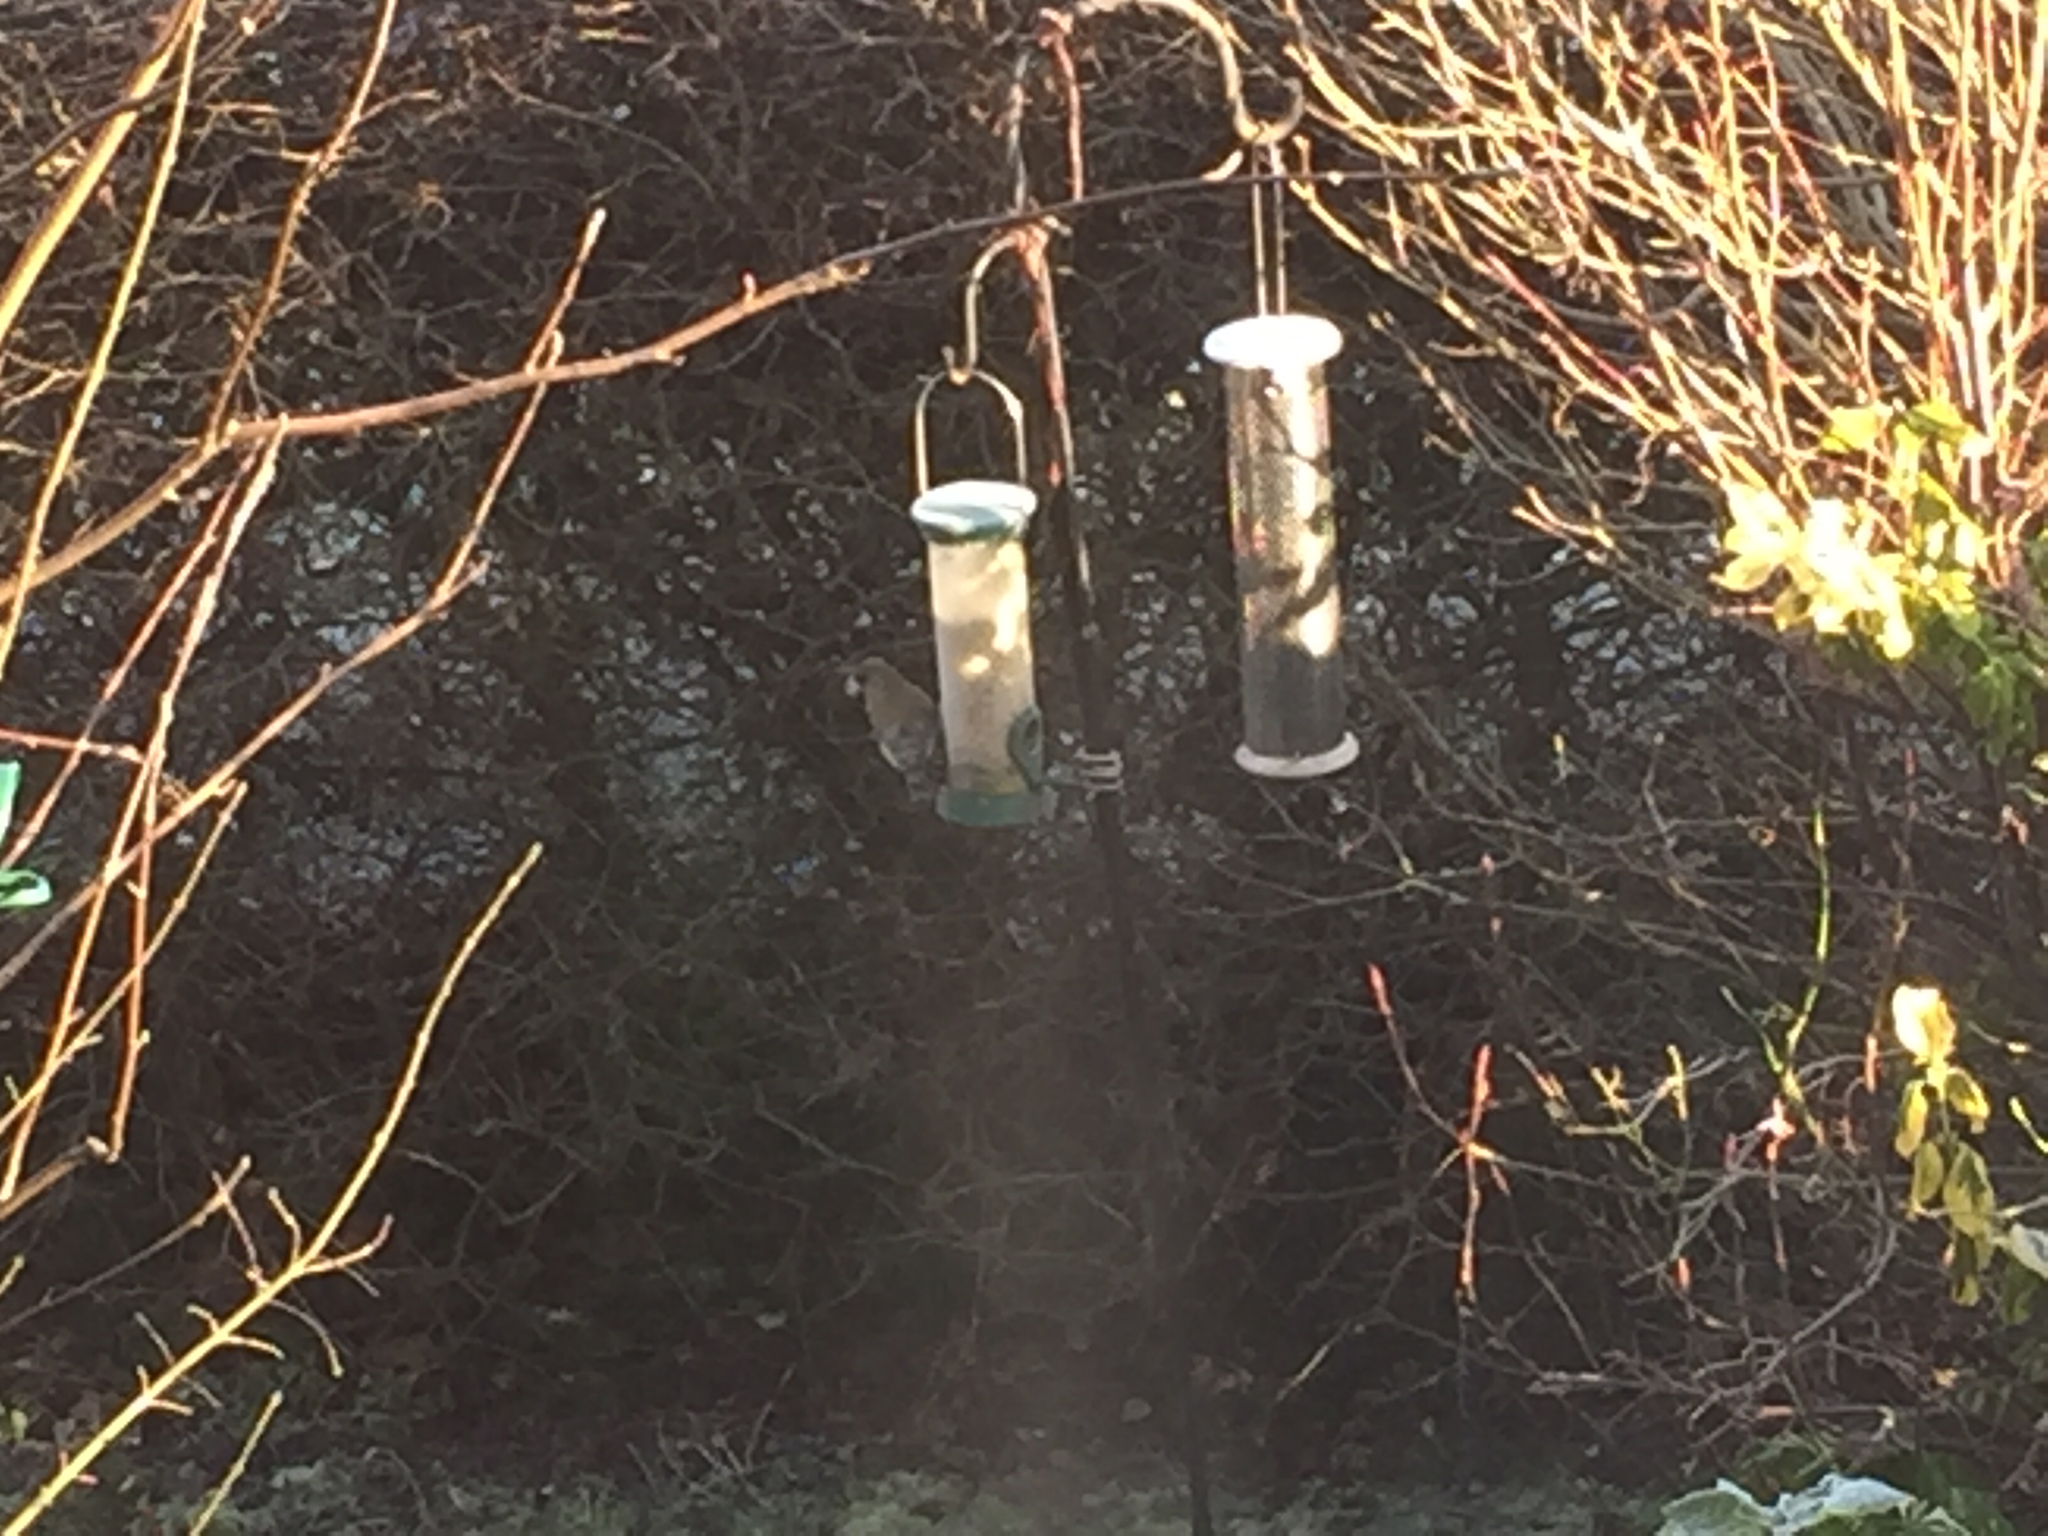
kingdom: Plantae
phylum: Tracheophyta
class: Liliopsida
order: Poales
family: Poaceae
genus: Chloris
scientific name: Chloris chloris
